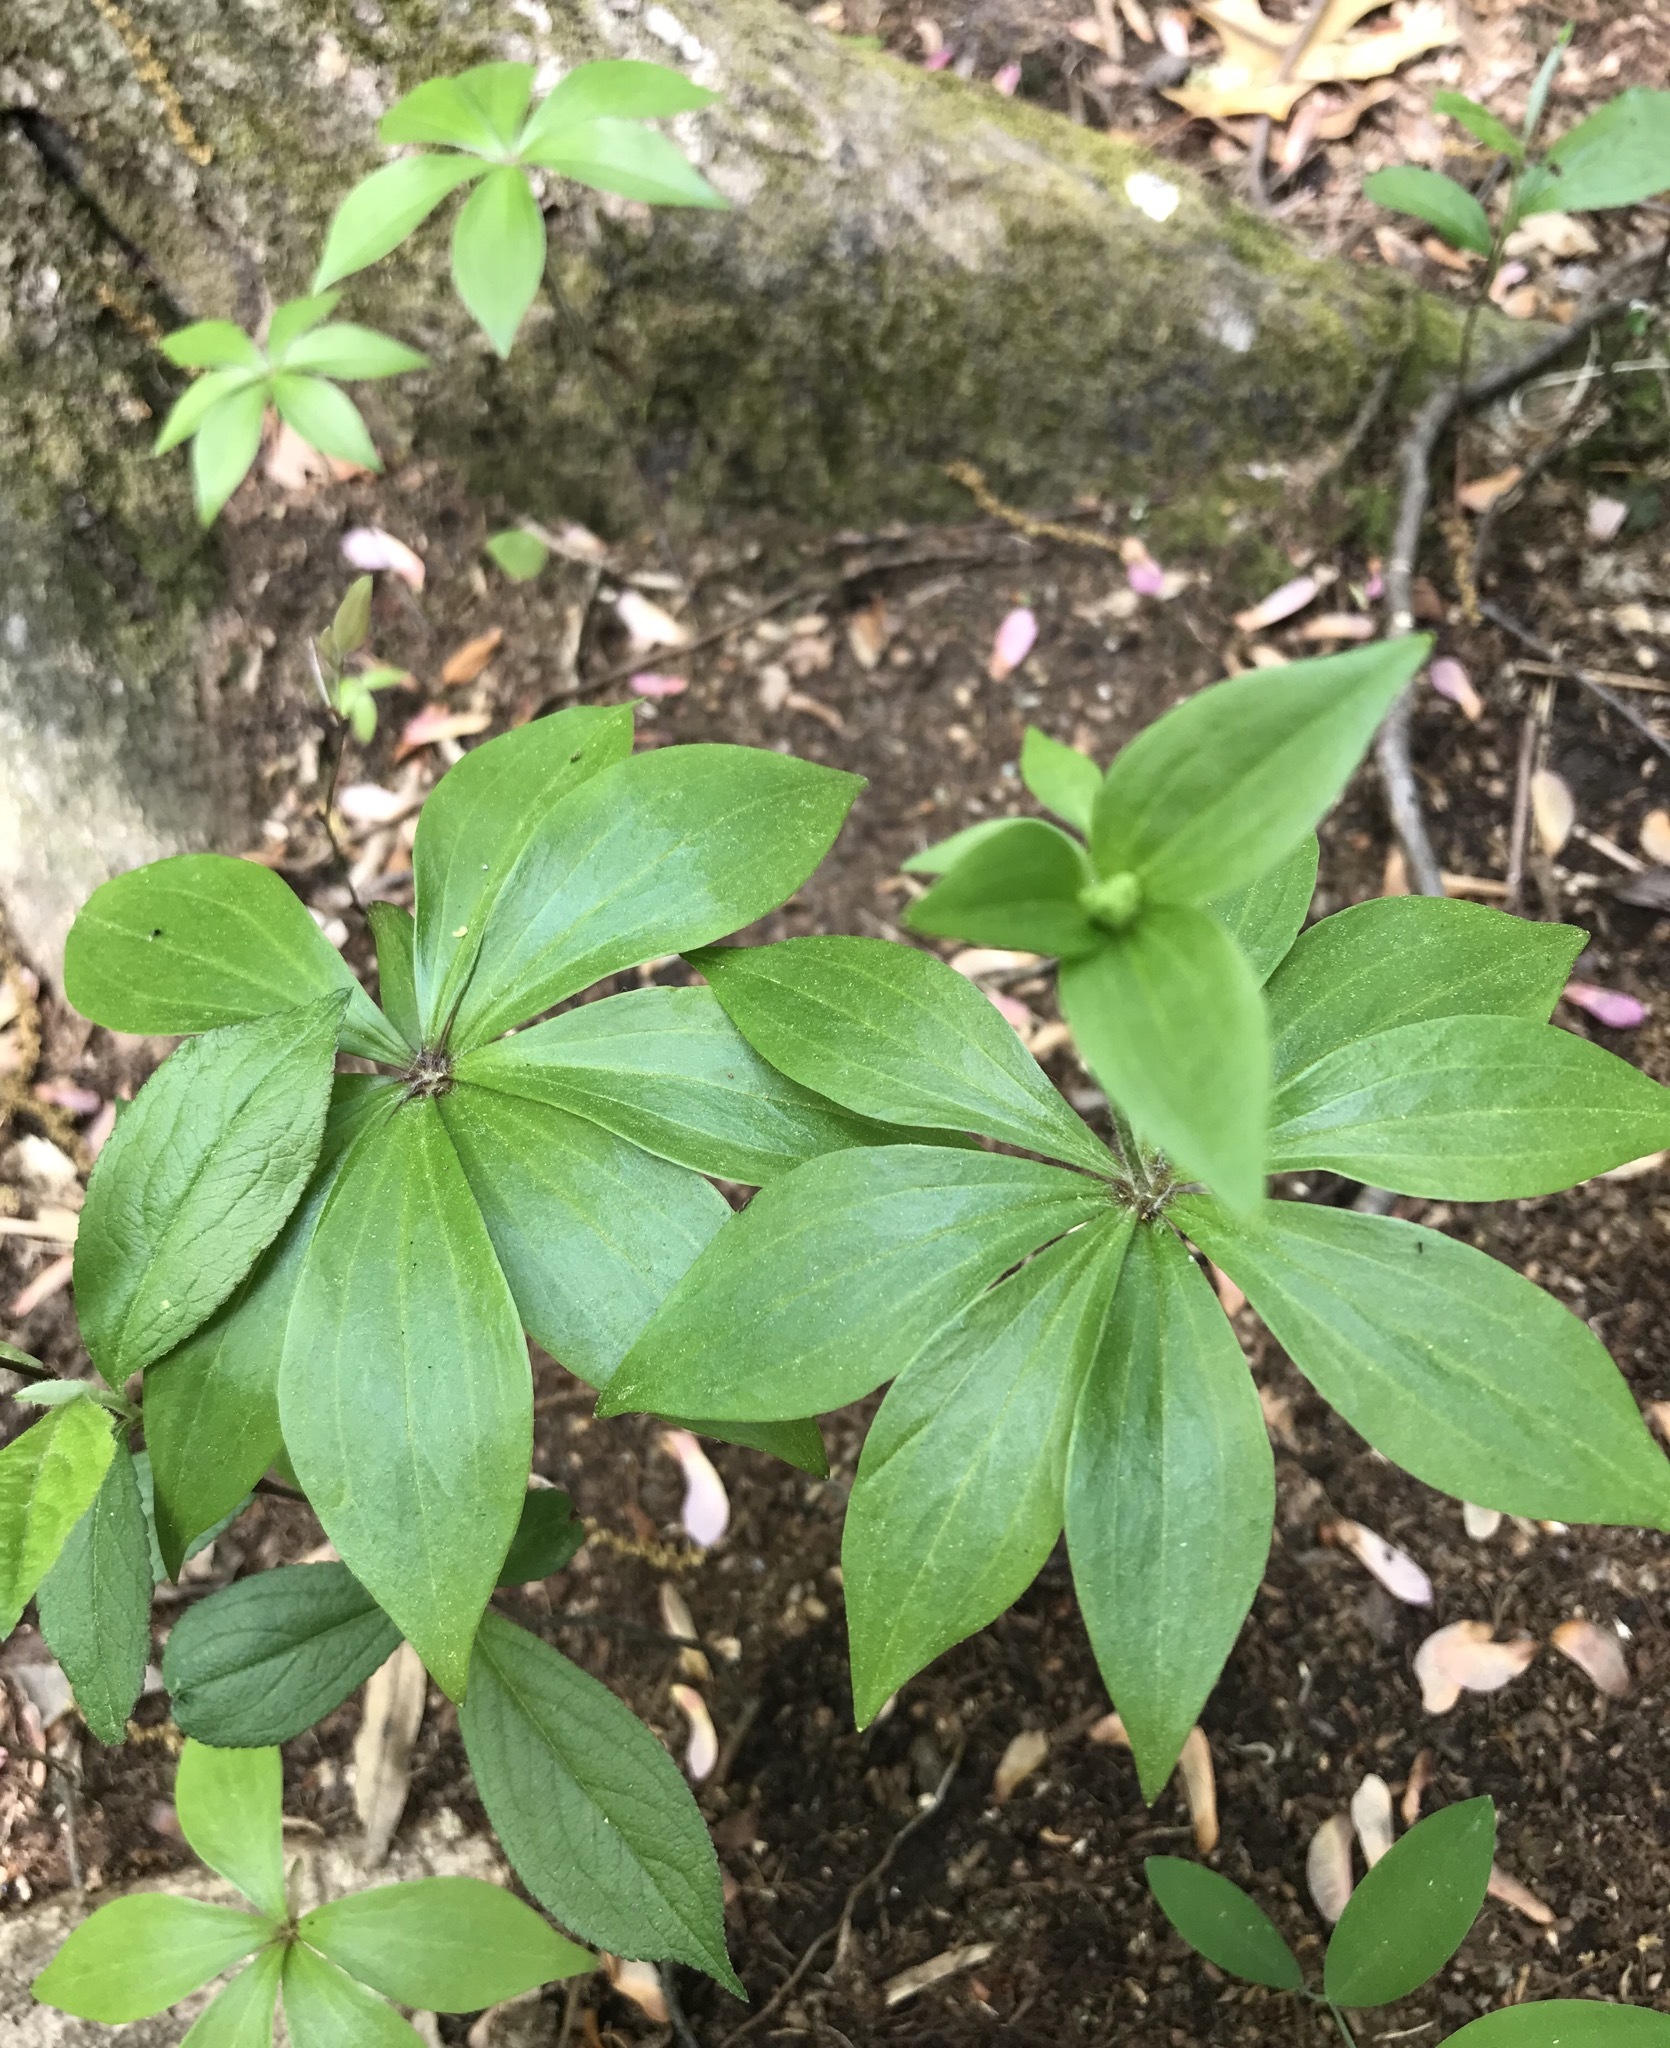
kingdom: Plantae
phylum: Tracheophyta
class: Liliopsida
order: Liliales
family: Liliaceae
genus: Medeola
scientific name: Medeola virginiana
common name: Indian cucumber-root
